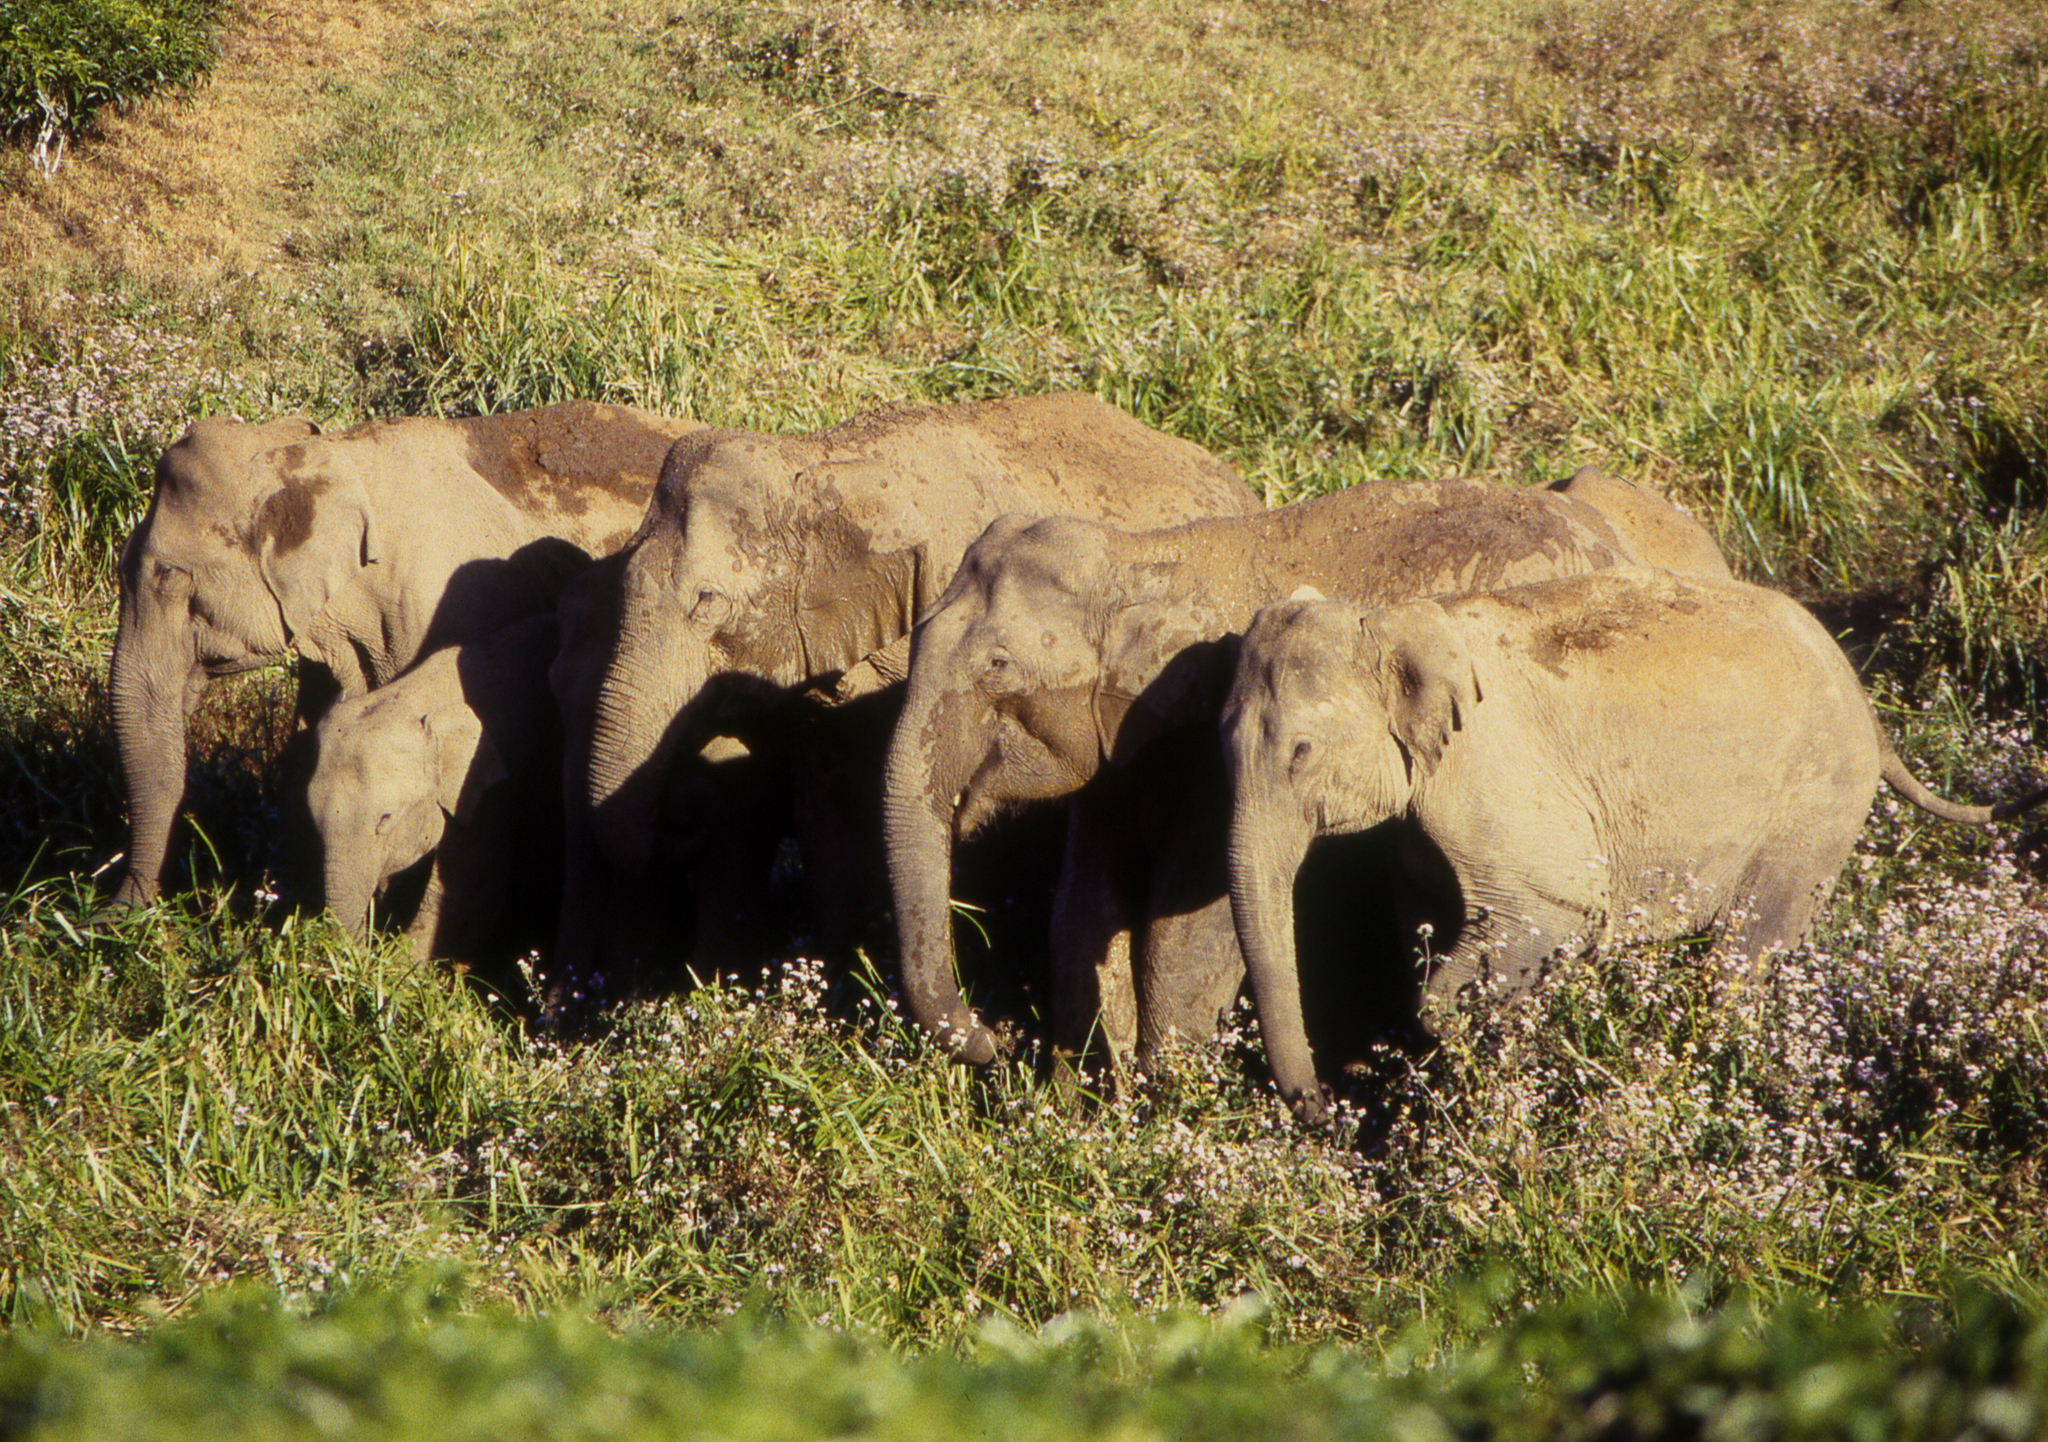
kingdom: Animalia
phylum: Chordata
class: Mammalia
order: Proboscidea
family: Elephantidae
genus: Elephas
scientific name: Elephas maximus
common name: Asian elephant
